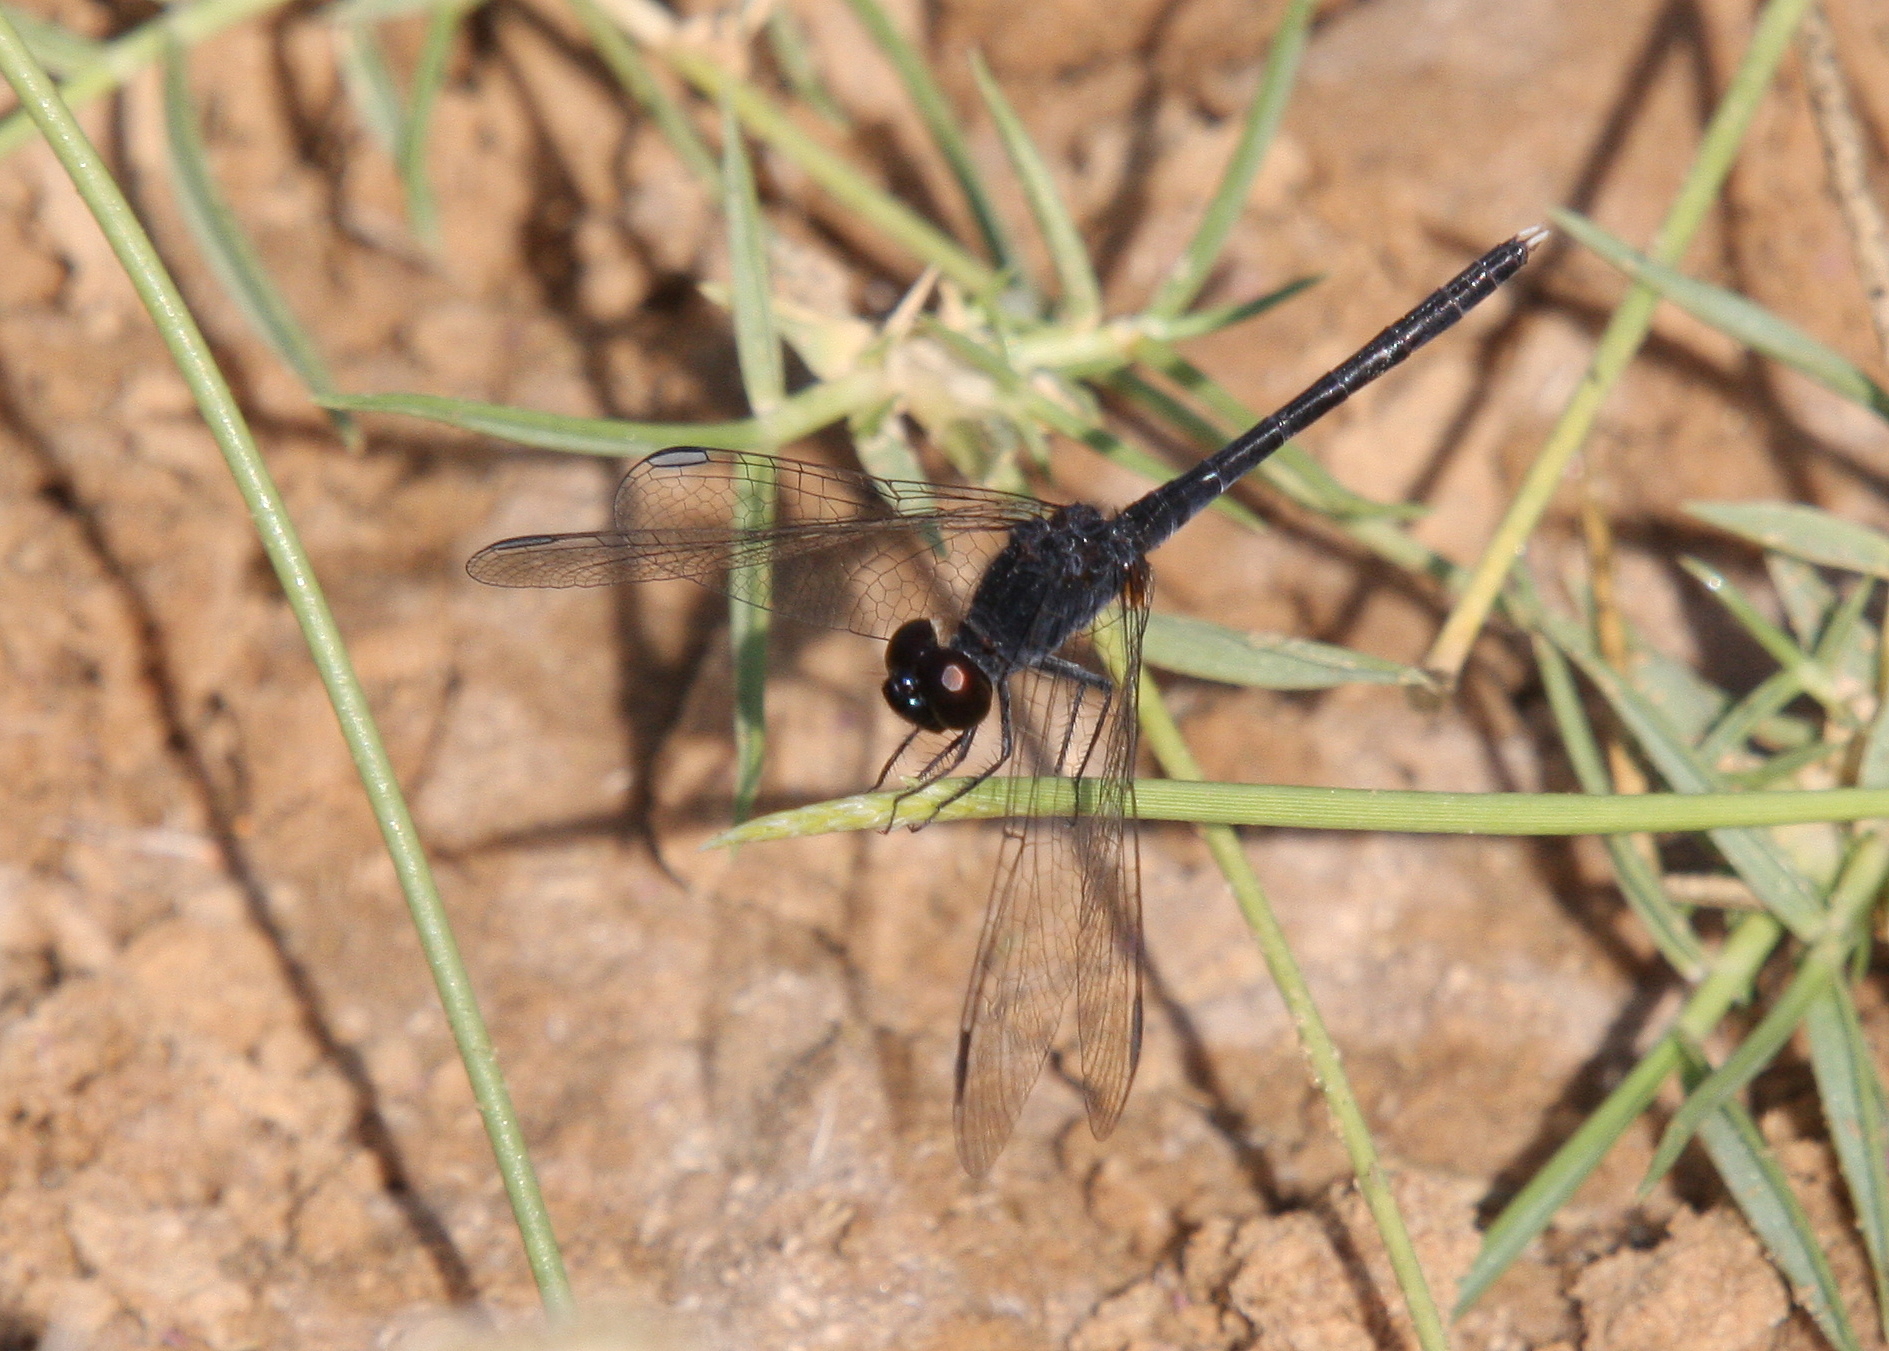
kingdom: Animalia
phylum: Arthropoda
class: Insecta
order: Odonata
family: Libellulidae
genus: Diplacodes
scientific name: Diplacodes lefebvrii
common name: Black percher
